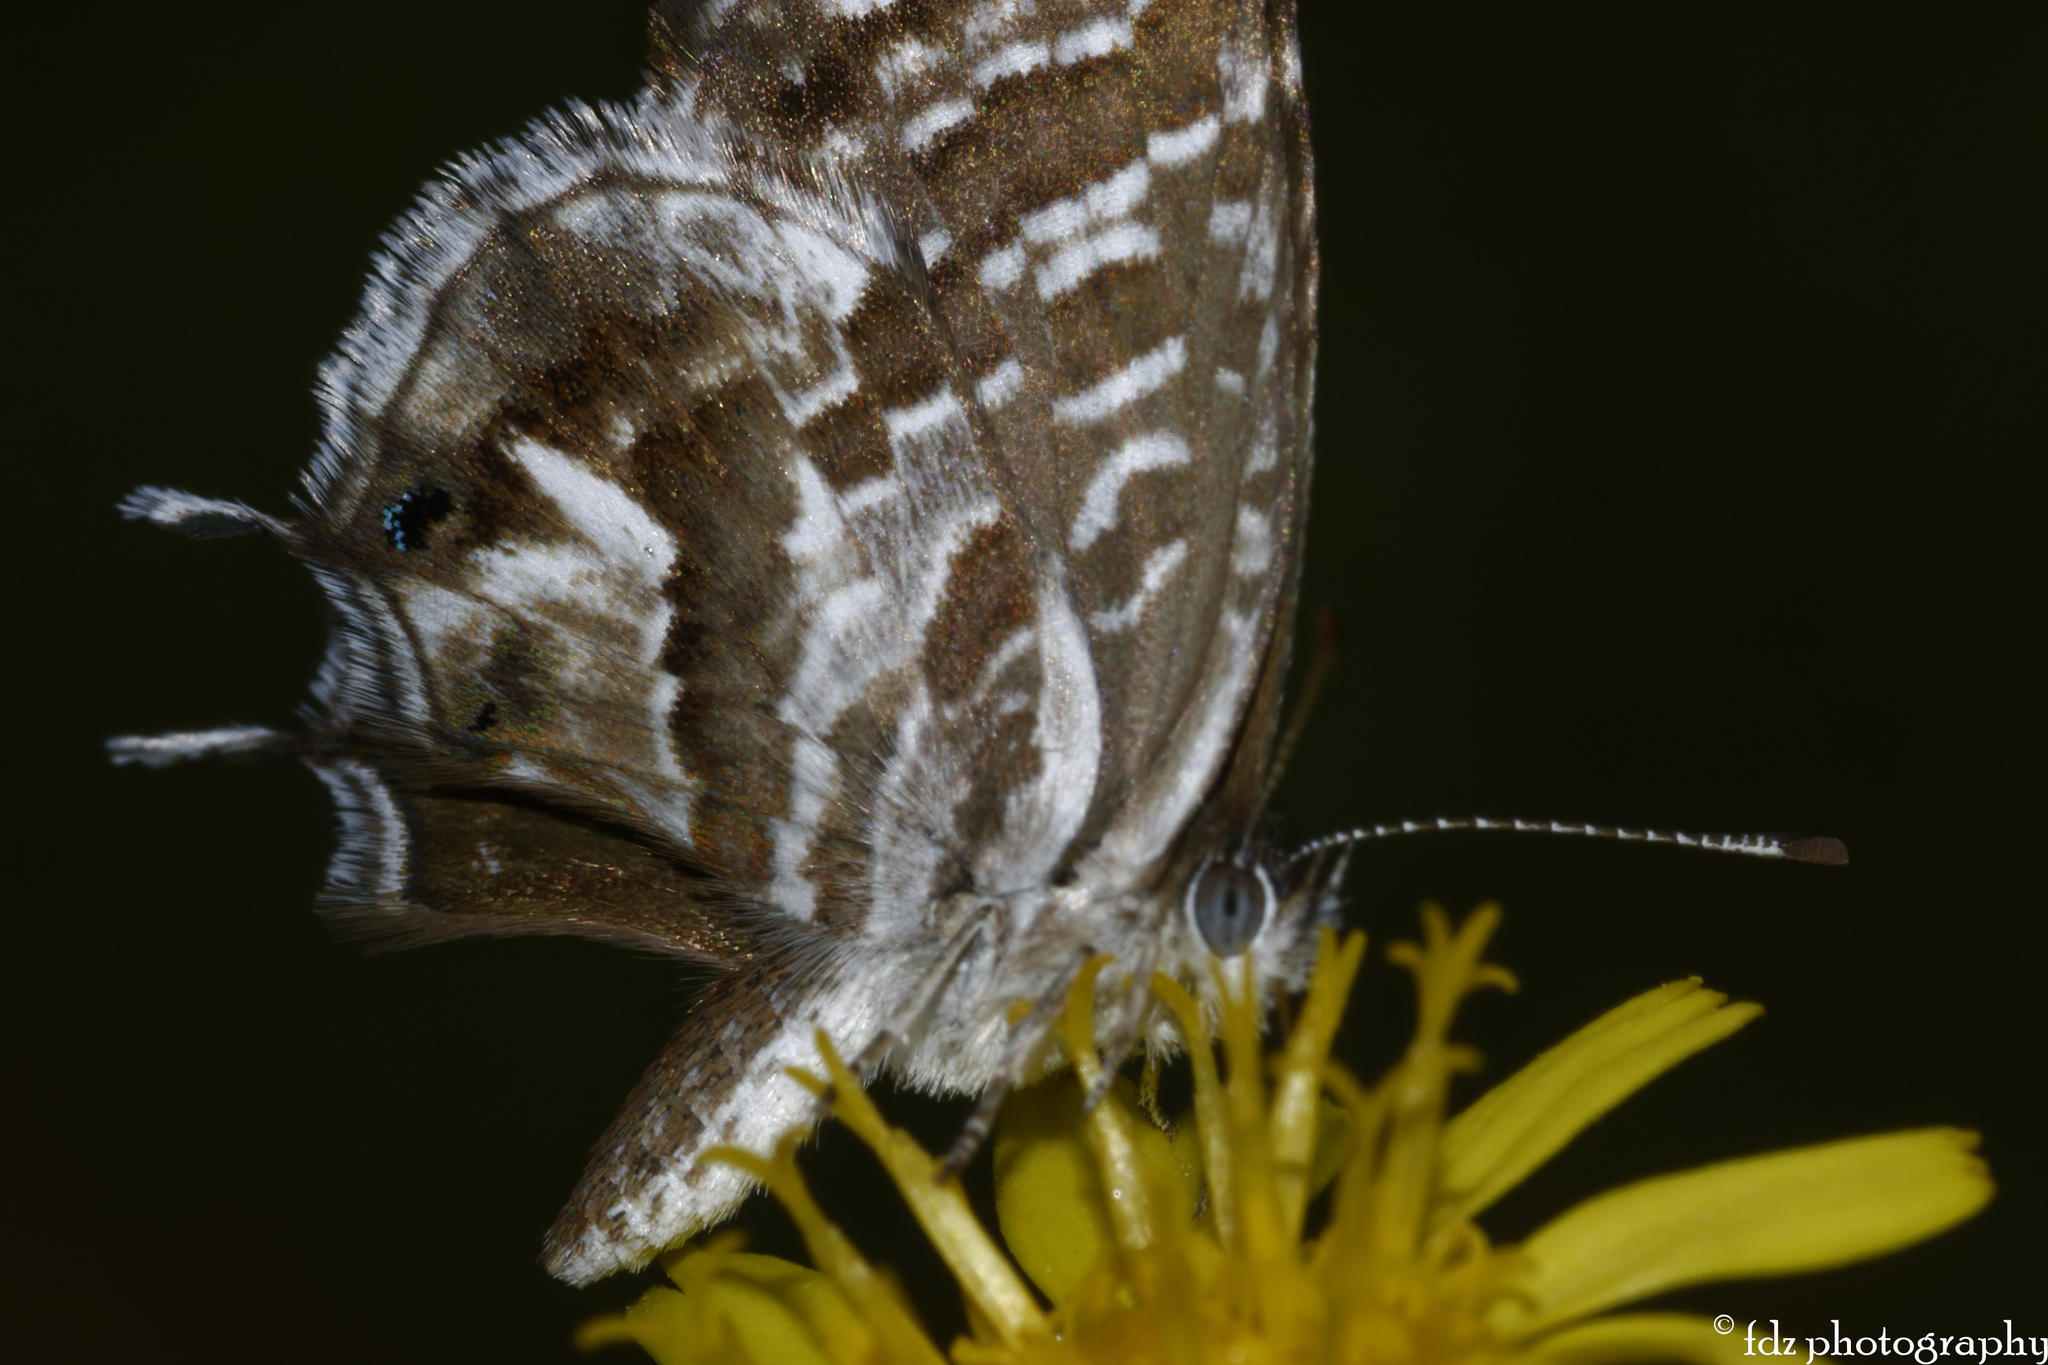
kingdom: Animalia
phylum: Arthropoda
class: Insecta
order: Lepidoptera
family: Lycaenidae
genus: Cacyreus
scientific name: Cacyreus marshalli
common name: Geranium bronze
